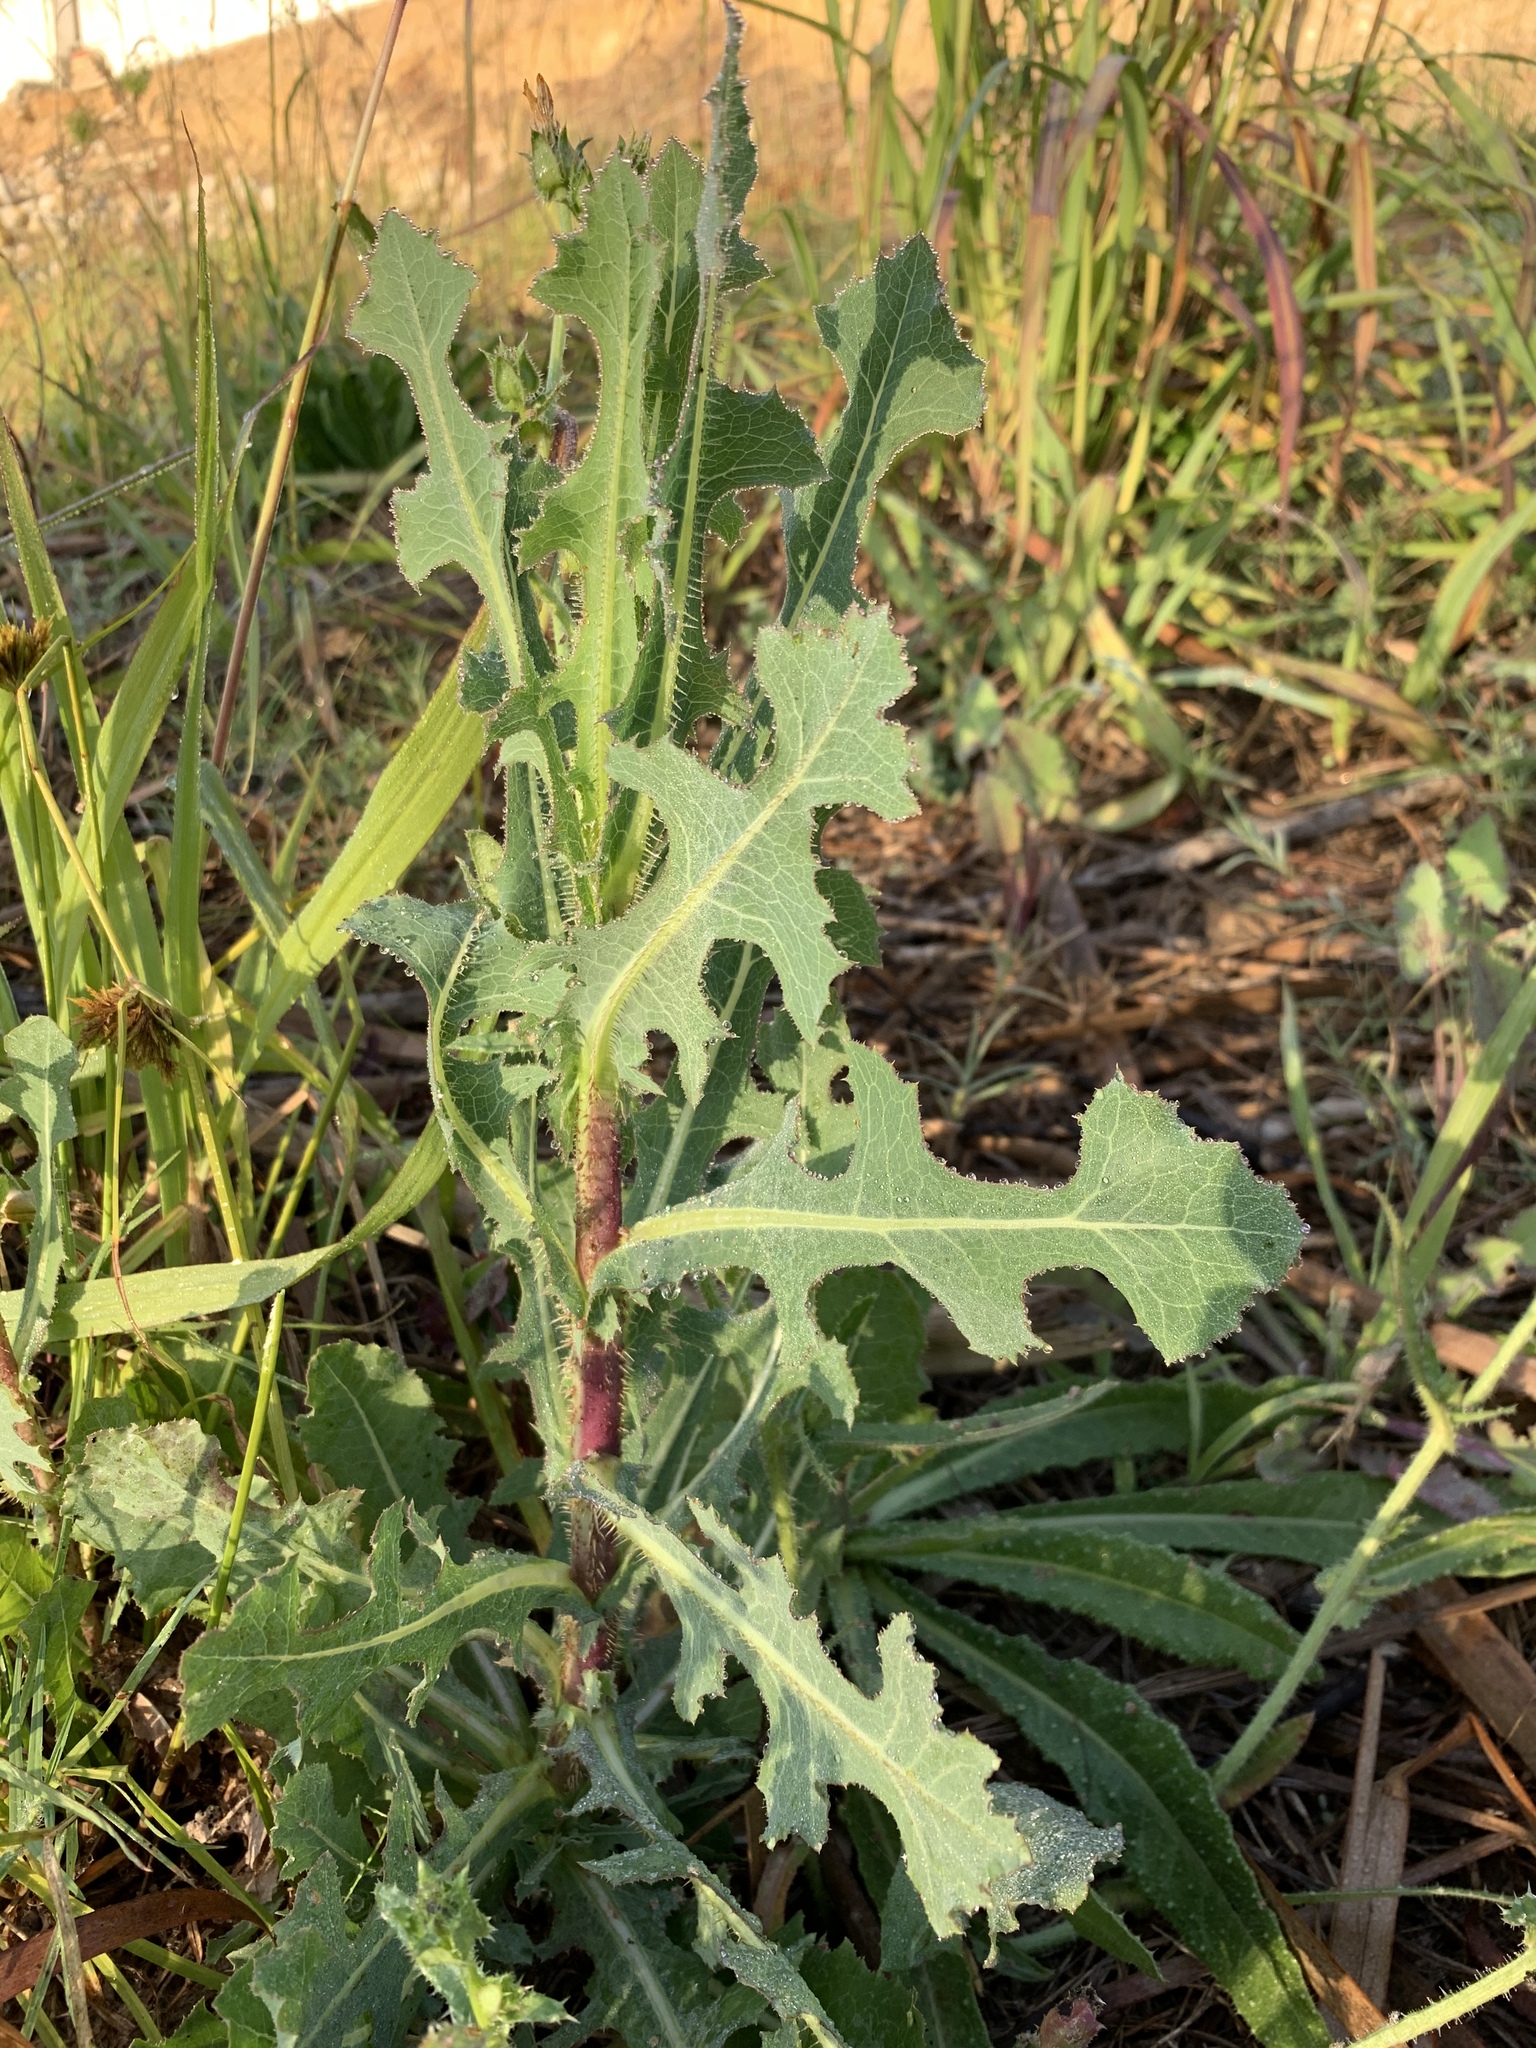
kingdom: Plantae
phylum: Tracheophyta
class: Magnoliopsida
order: Asterales
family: Asteraceae
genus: Lactuca
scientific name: Lactuca serriola
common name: Prickly lettuce
